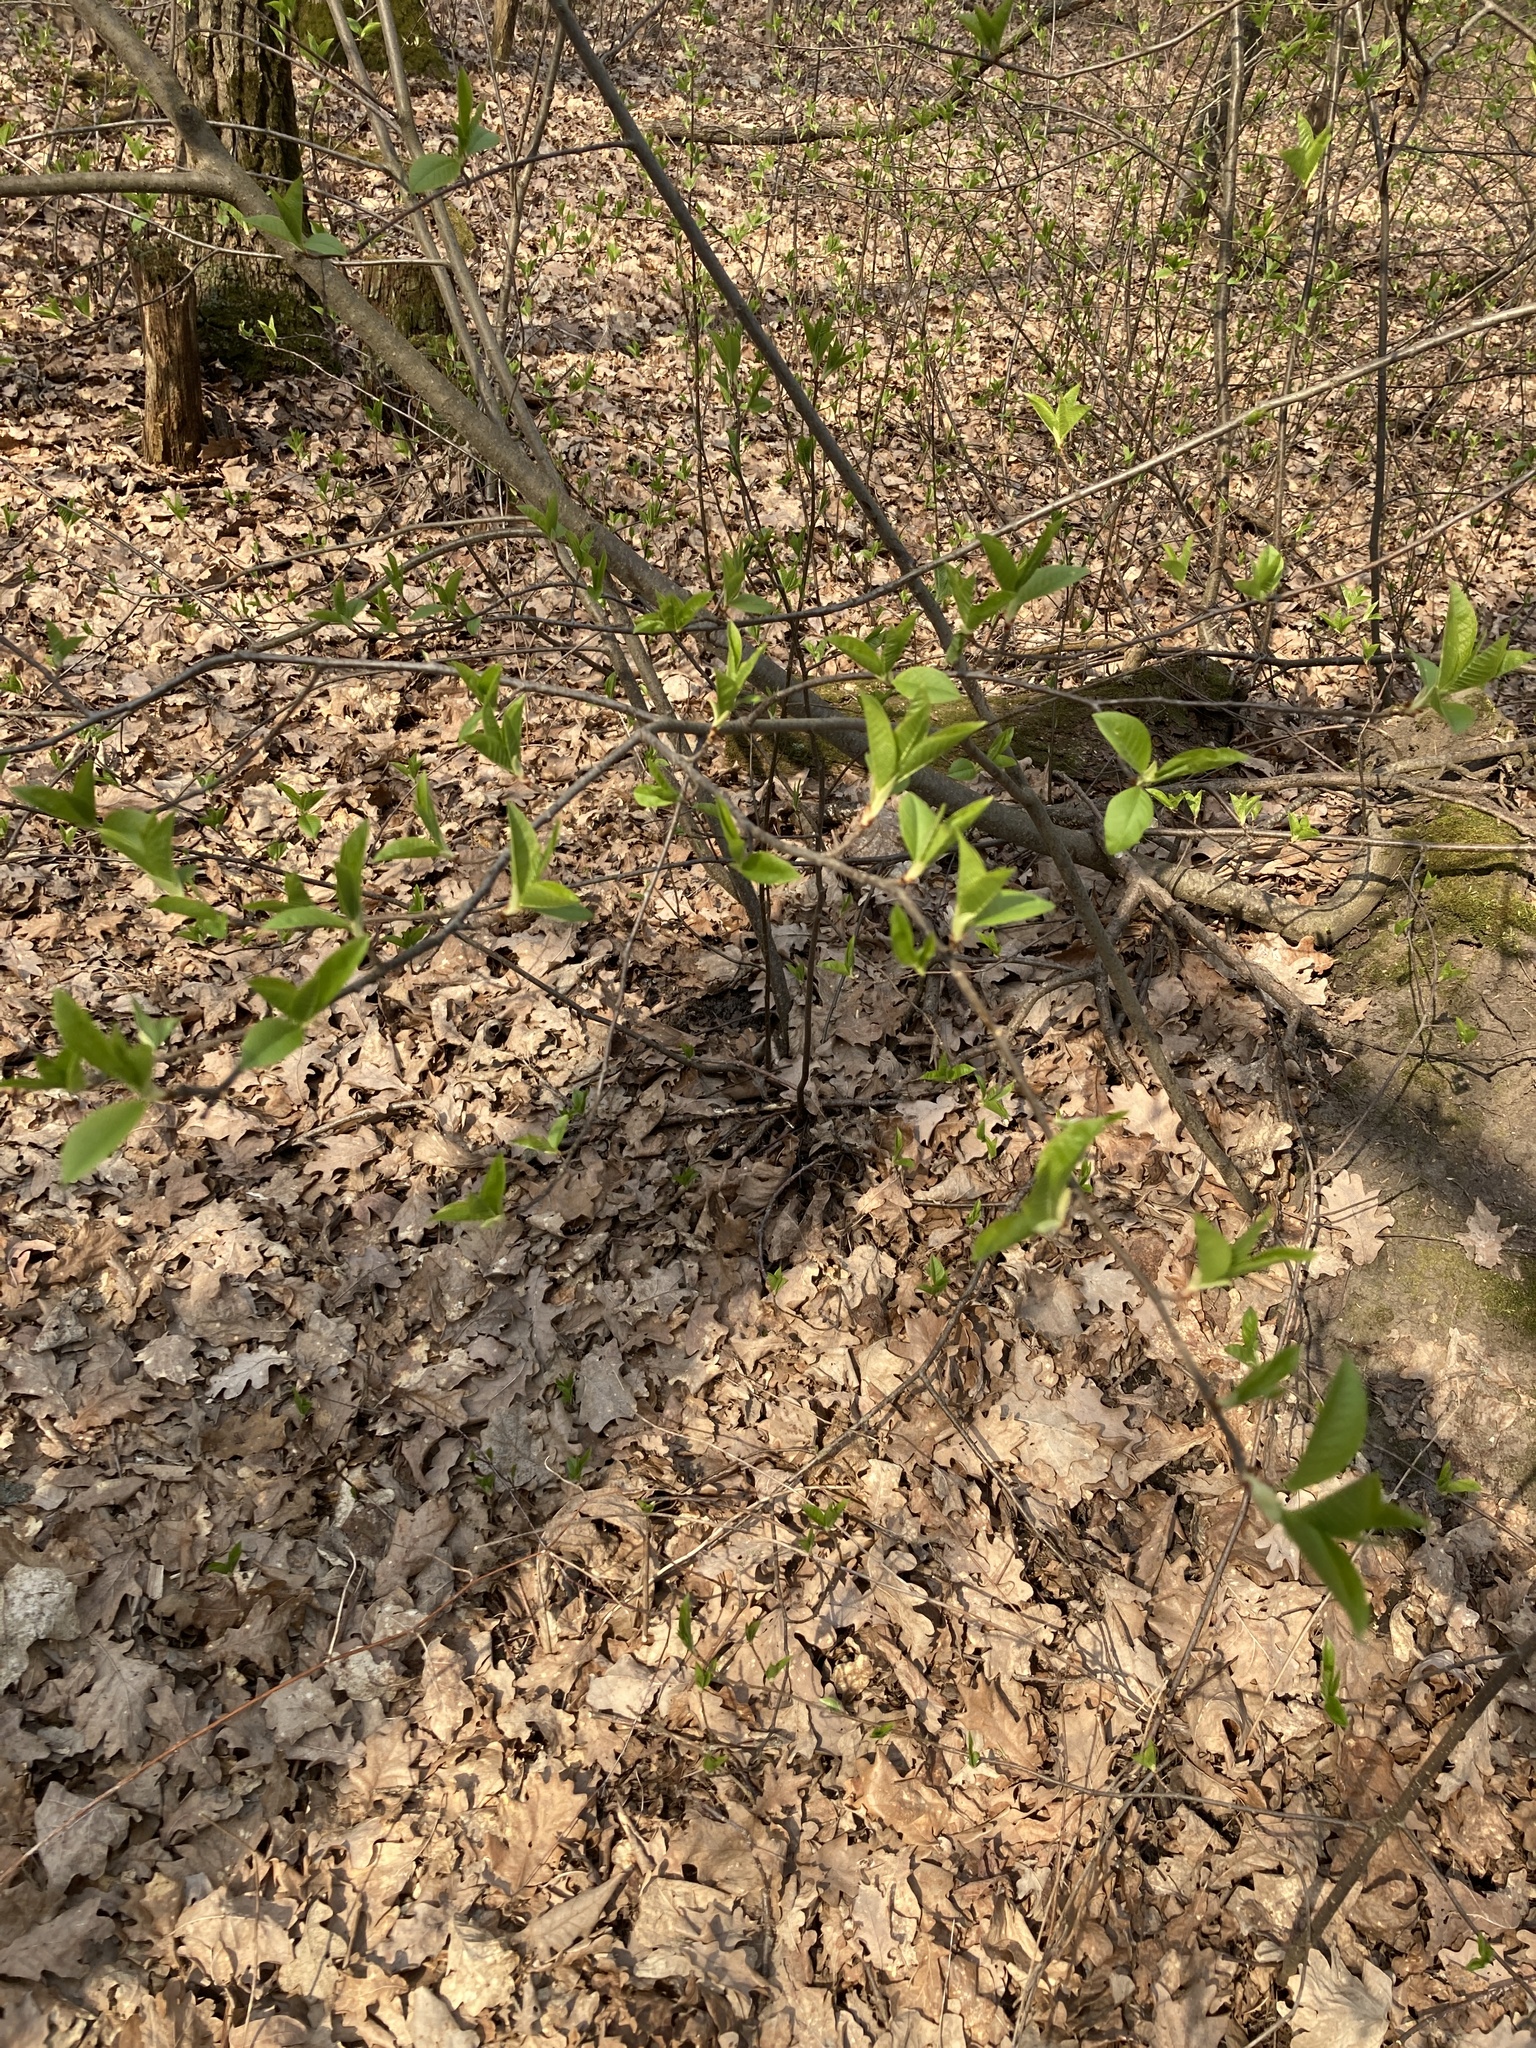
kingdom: Plantae
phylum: Tracheophyta
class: Magnoliopsida
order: Rosales
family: Rosaceae
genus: Prunus
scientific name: Prunus padus
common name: Bird cherry
